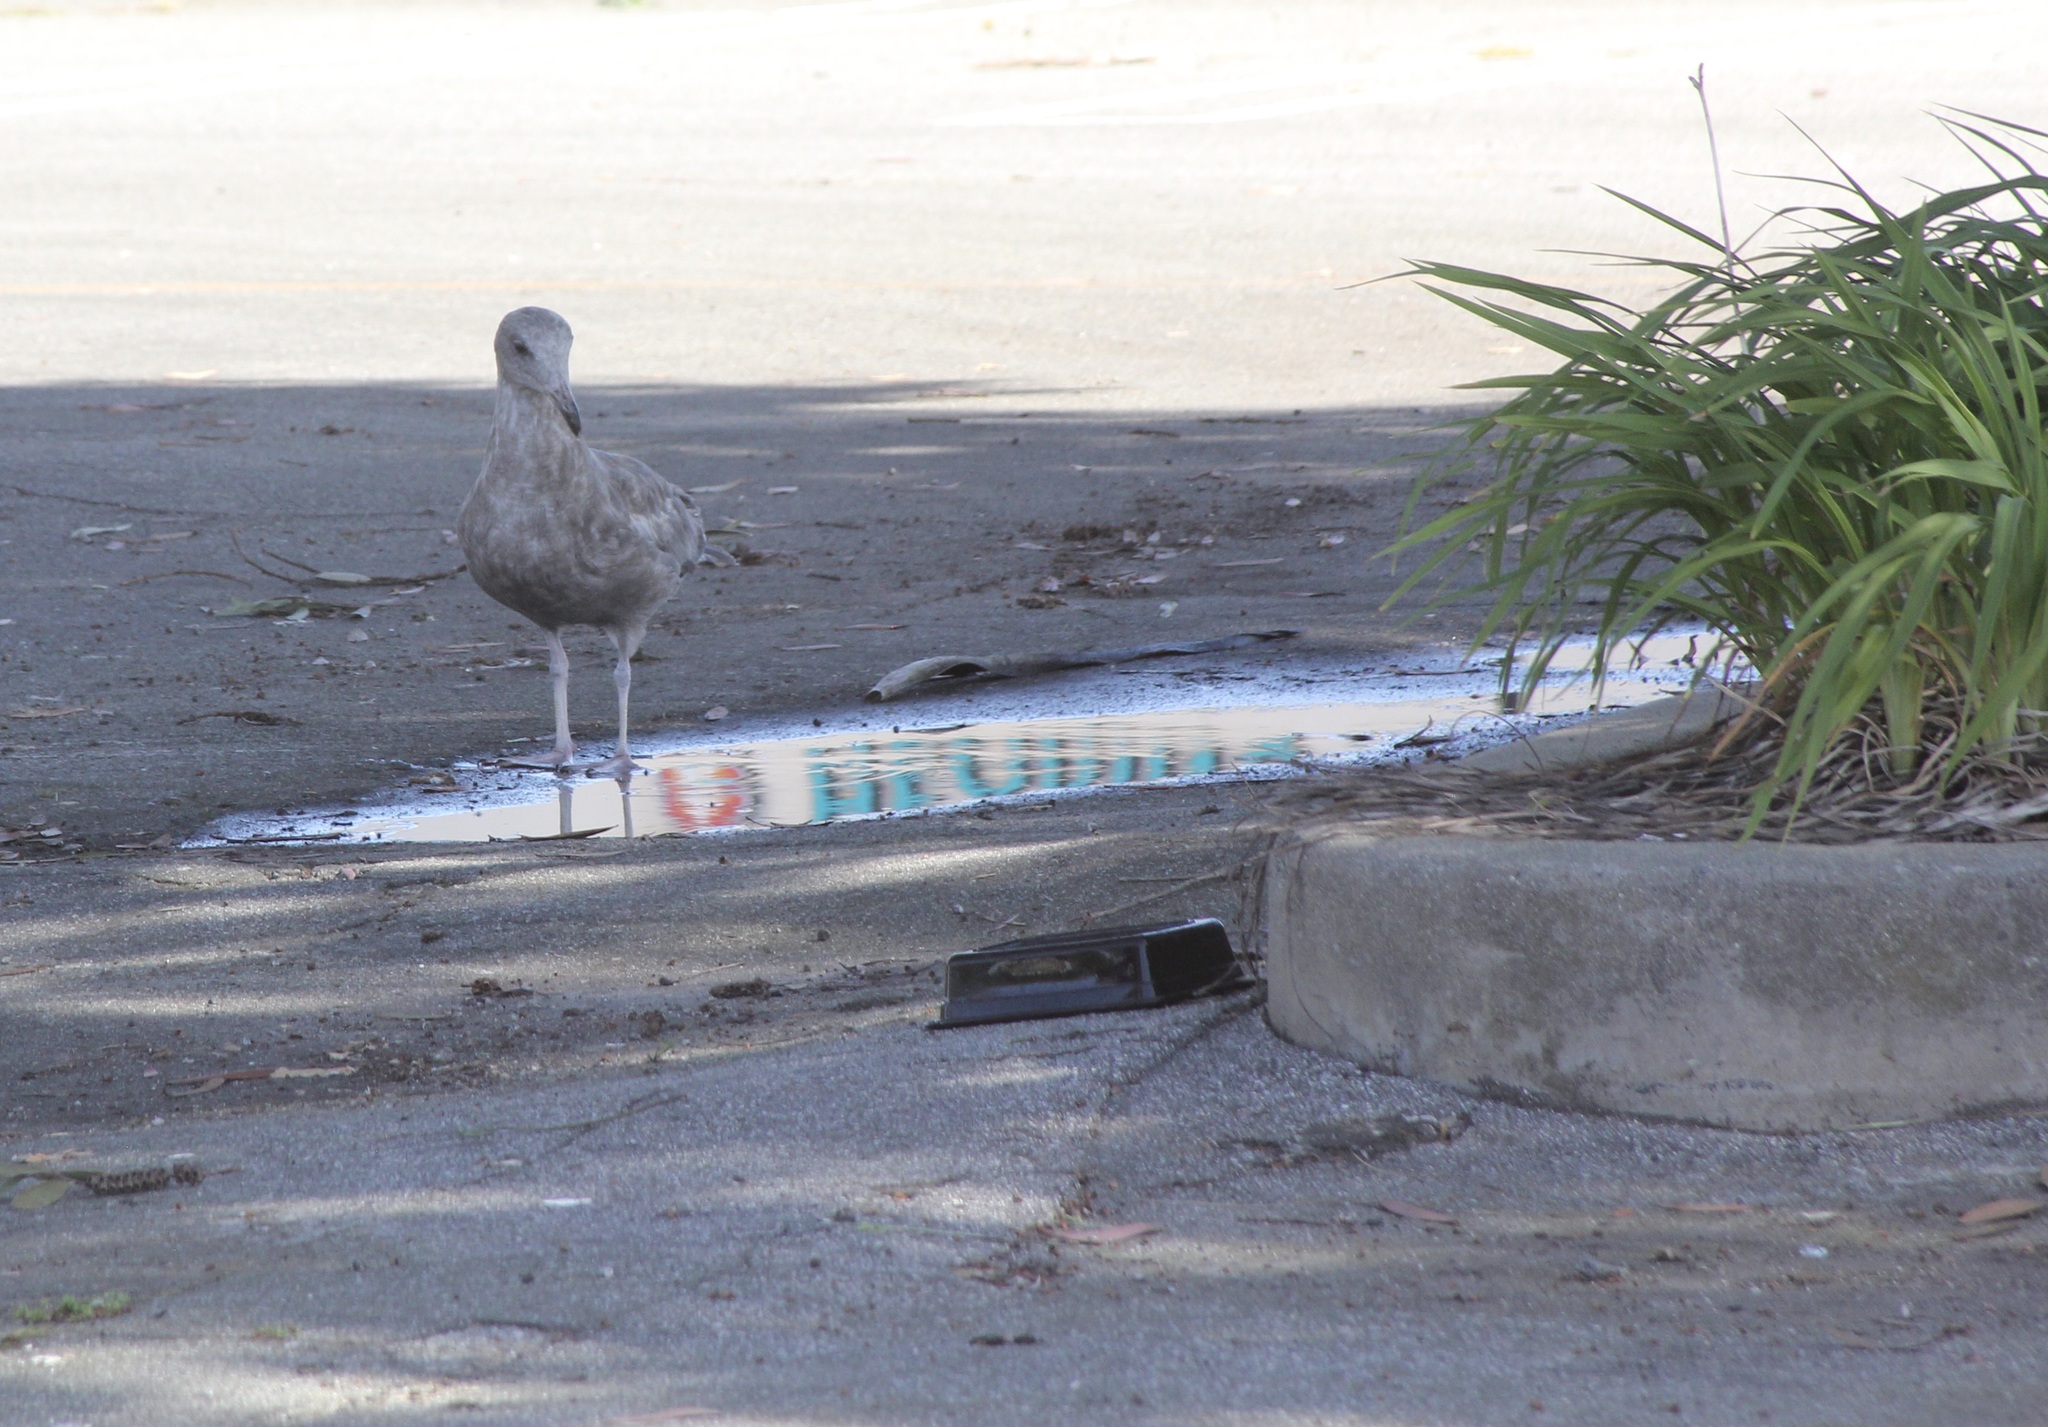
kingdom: Animalia
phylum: Chordata
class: Aves
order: Charadriiformes
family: Laridae
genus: Larus
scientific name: Larus occidentalis
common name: Western gull
